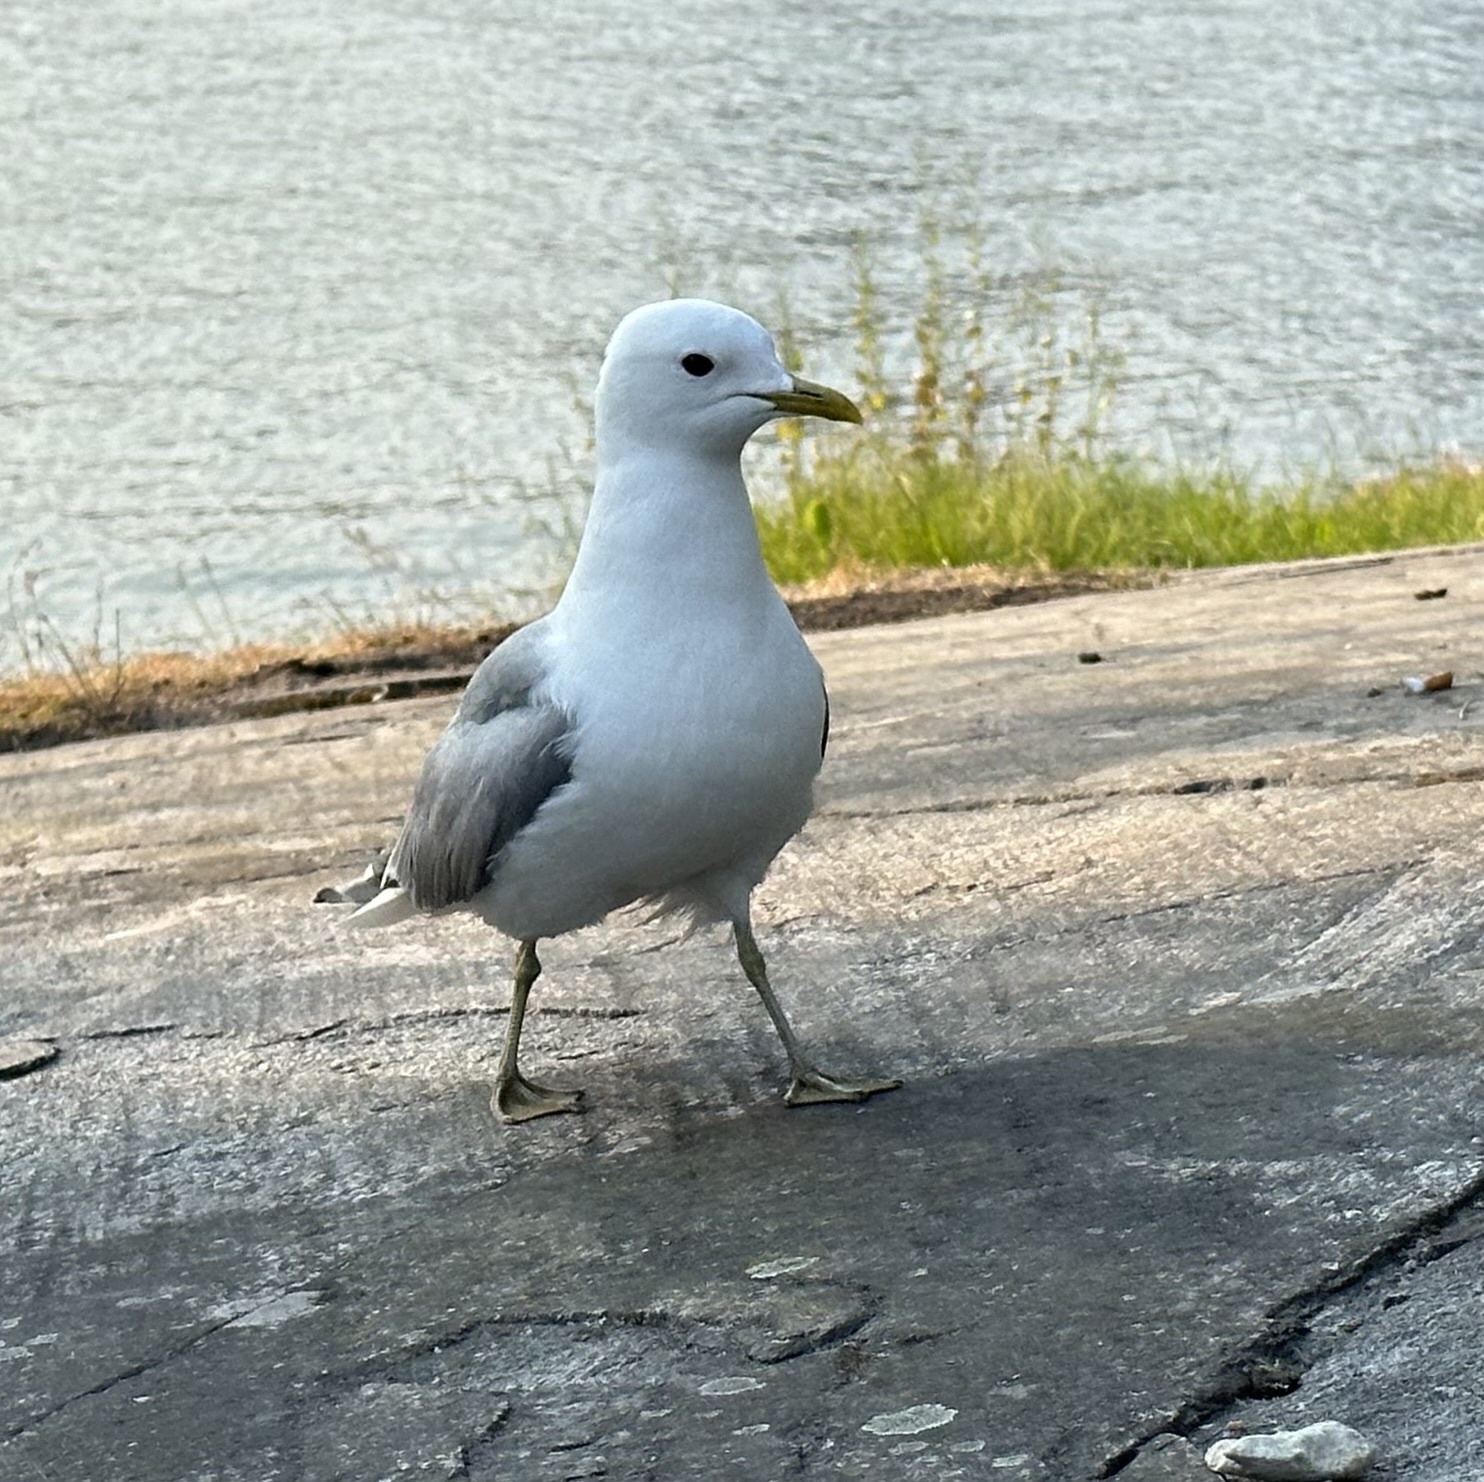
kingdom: Animalia
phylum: Chordata
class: Aves
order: Charadriiformes
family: Laridae
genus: Larus
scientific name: Larus canus
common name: Mew gull
